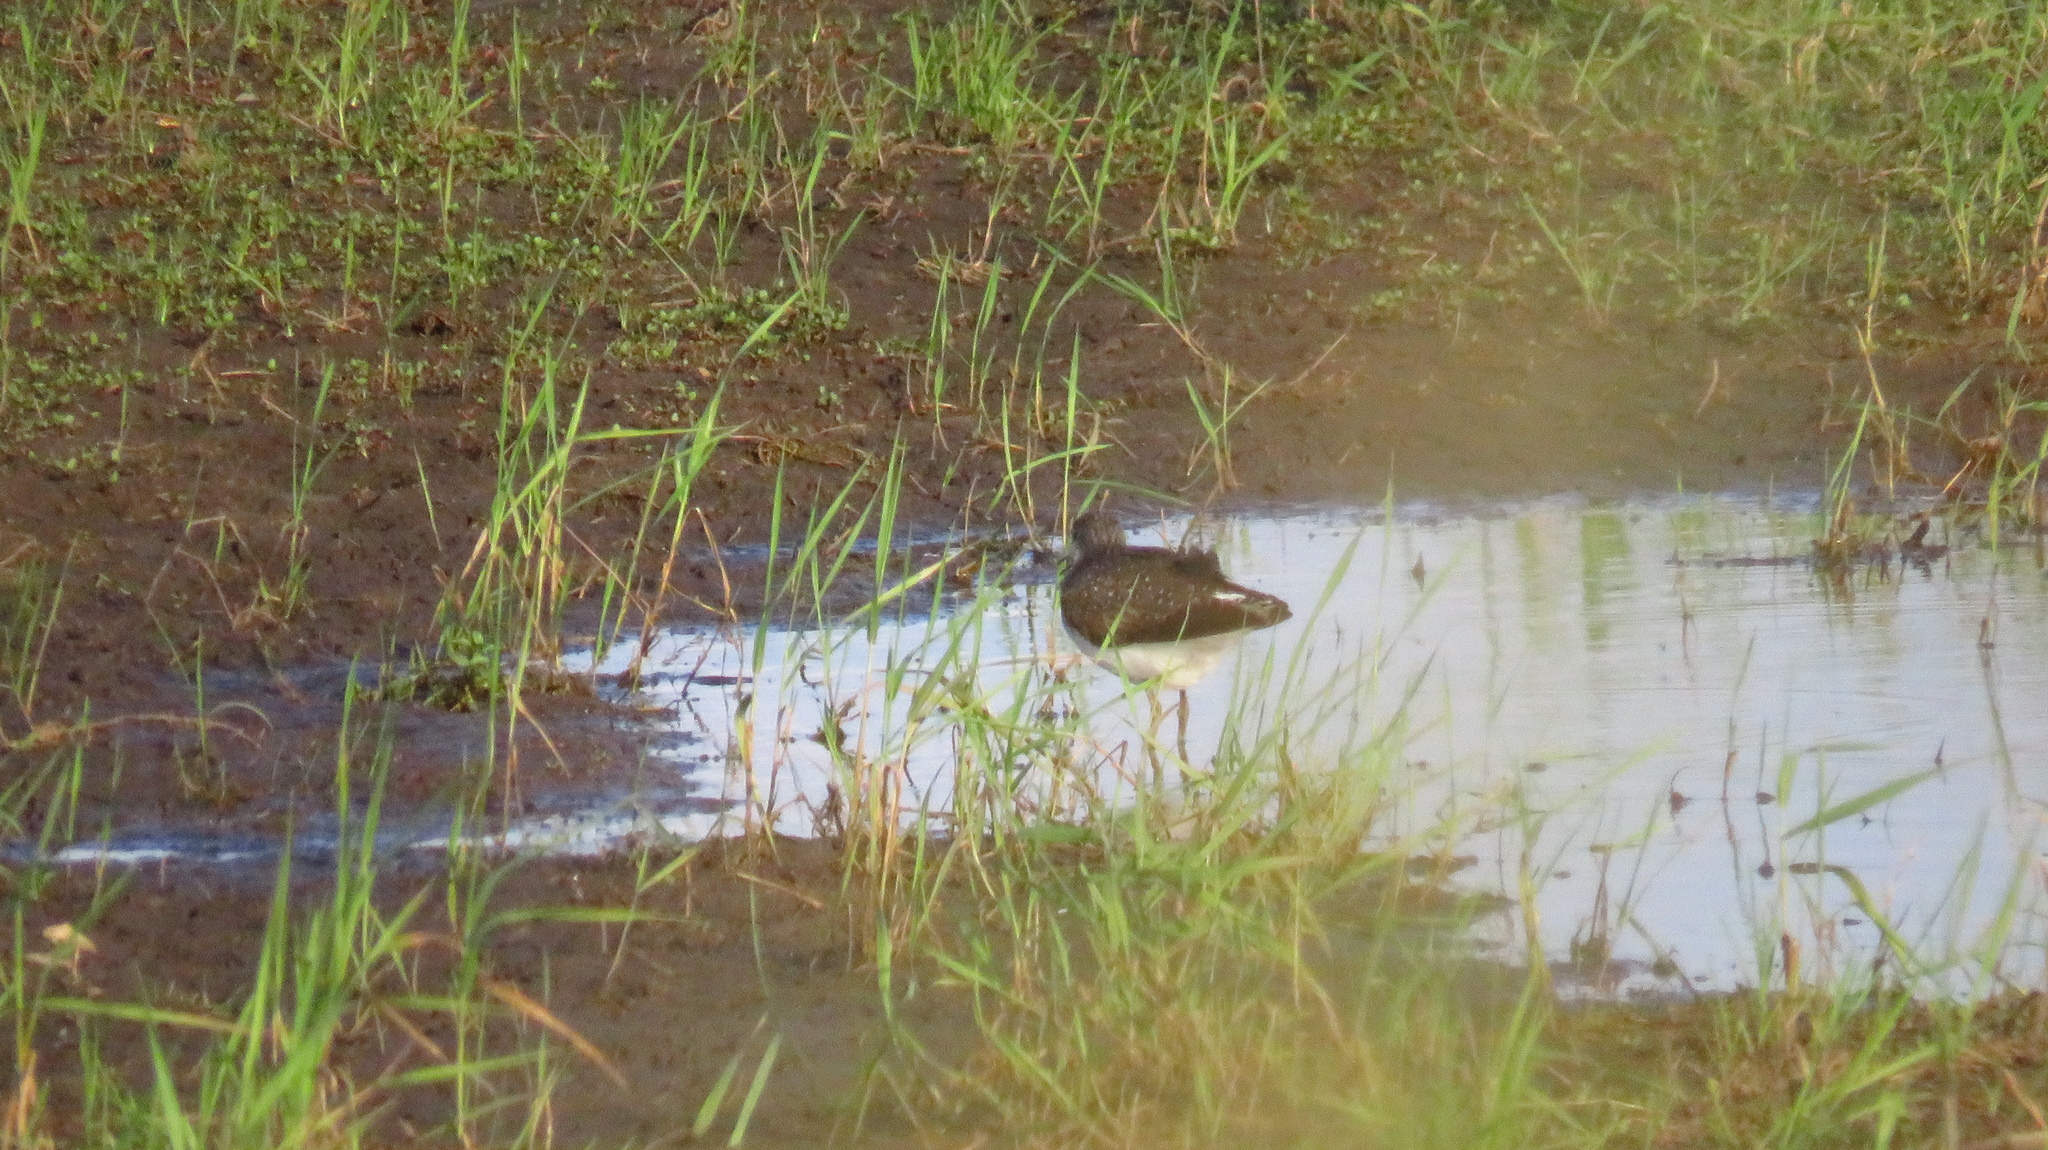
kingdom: Animalia
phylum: Chordata
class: Aves
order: Charadriiformes
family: Scolopacidae
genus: Tringa
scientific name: Tringa ochropus
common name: Green sandpiper
